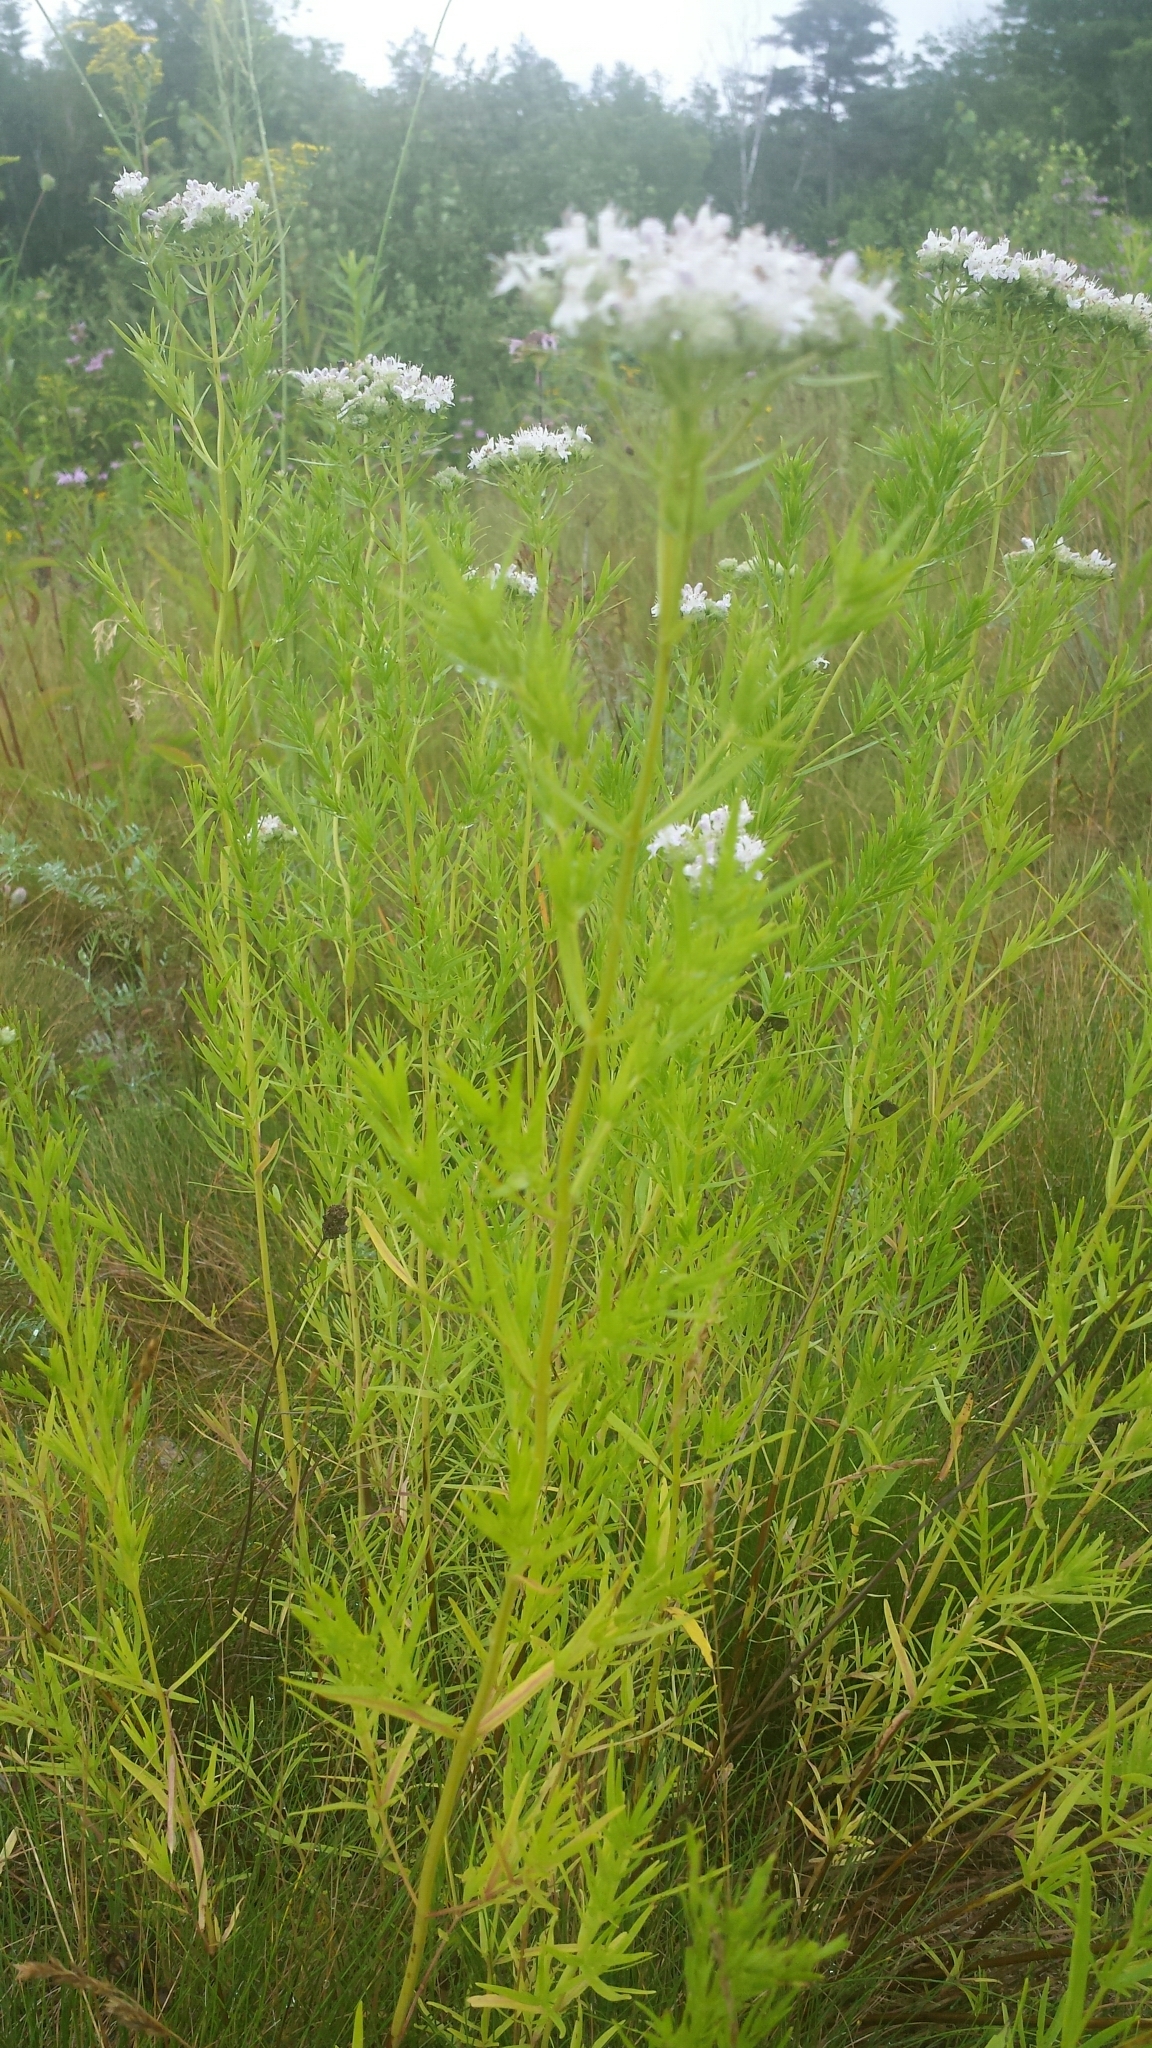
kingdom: Plantae
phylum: Tracheophyta
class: Magnoliopsida
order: Lamiales
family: Lamiaceae
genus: Pycnanthemum
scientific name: Pycnanthemum tenuifolium
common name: Narrow-leaf mountain-mint
